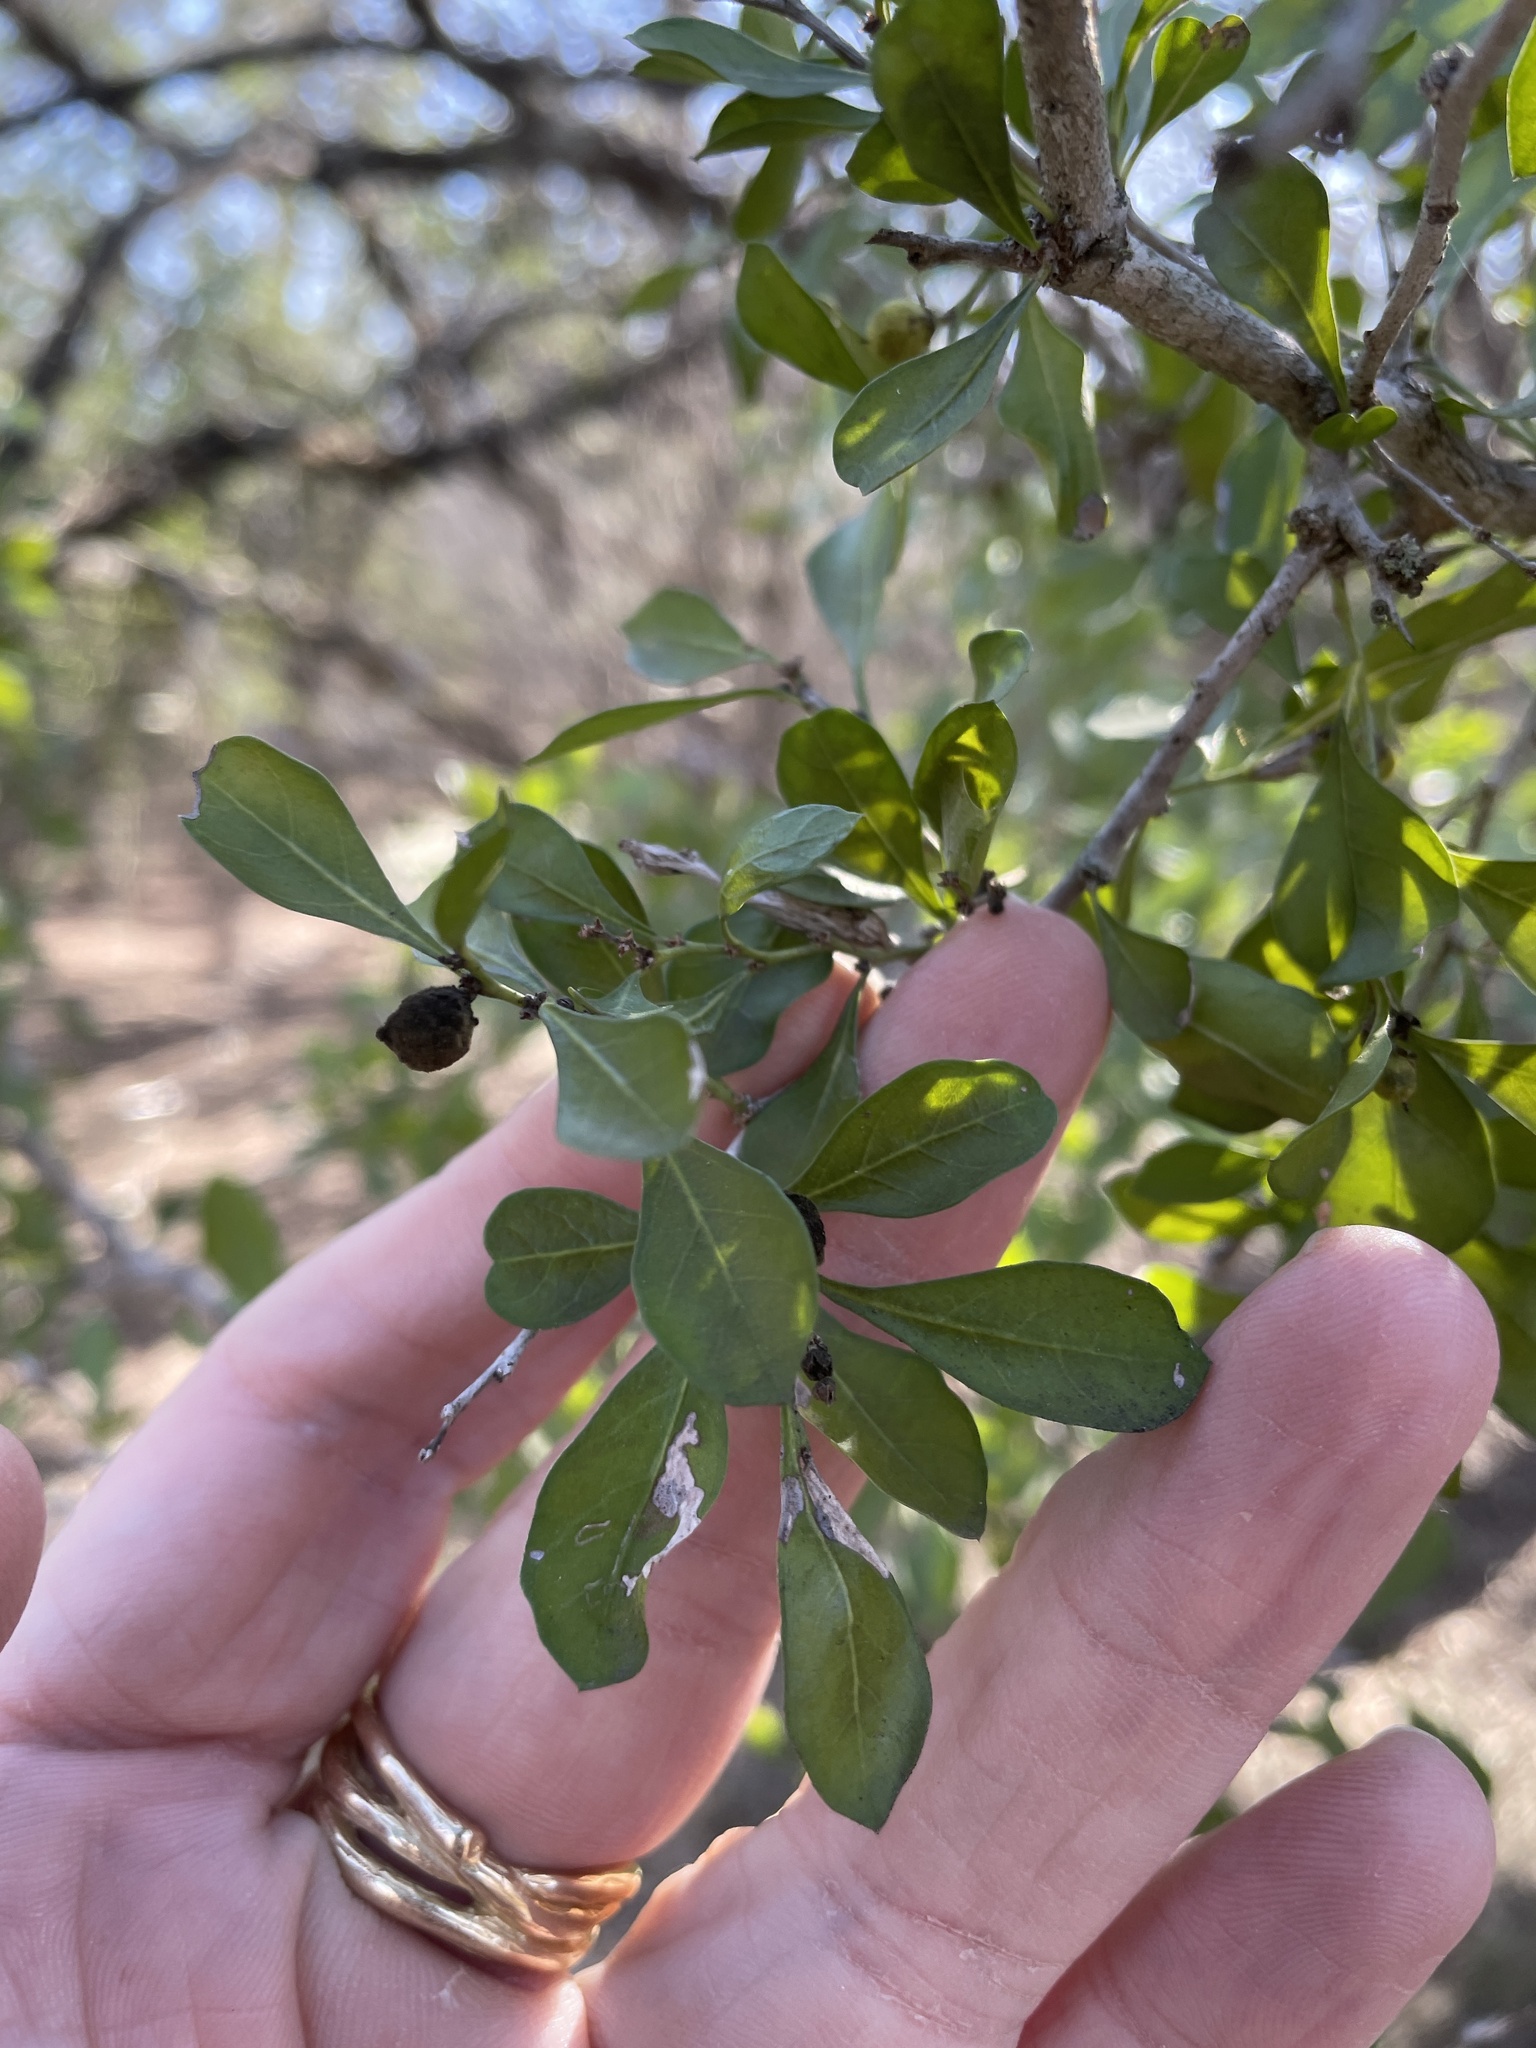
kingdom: Plantae
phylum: Tracheophyta
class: Magnoliopsida
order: Rosales
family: Rhamnaceae
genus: Condalia
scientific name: Condalia hookeri
